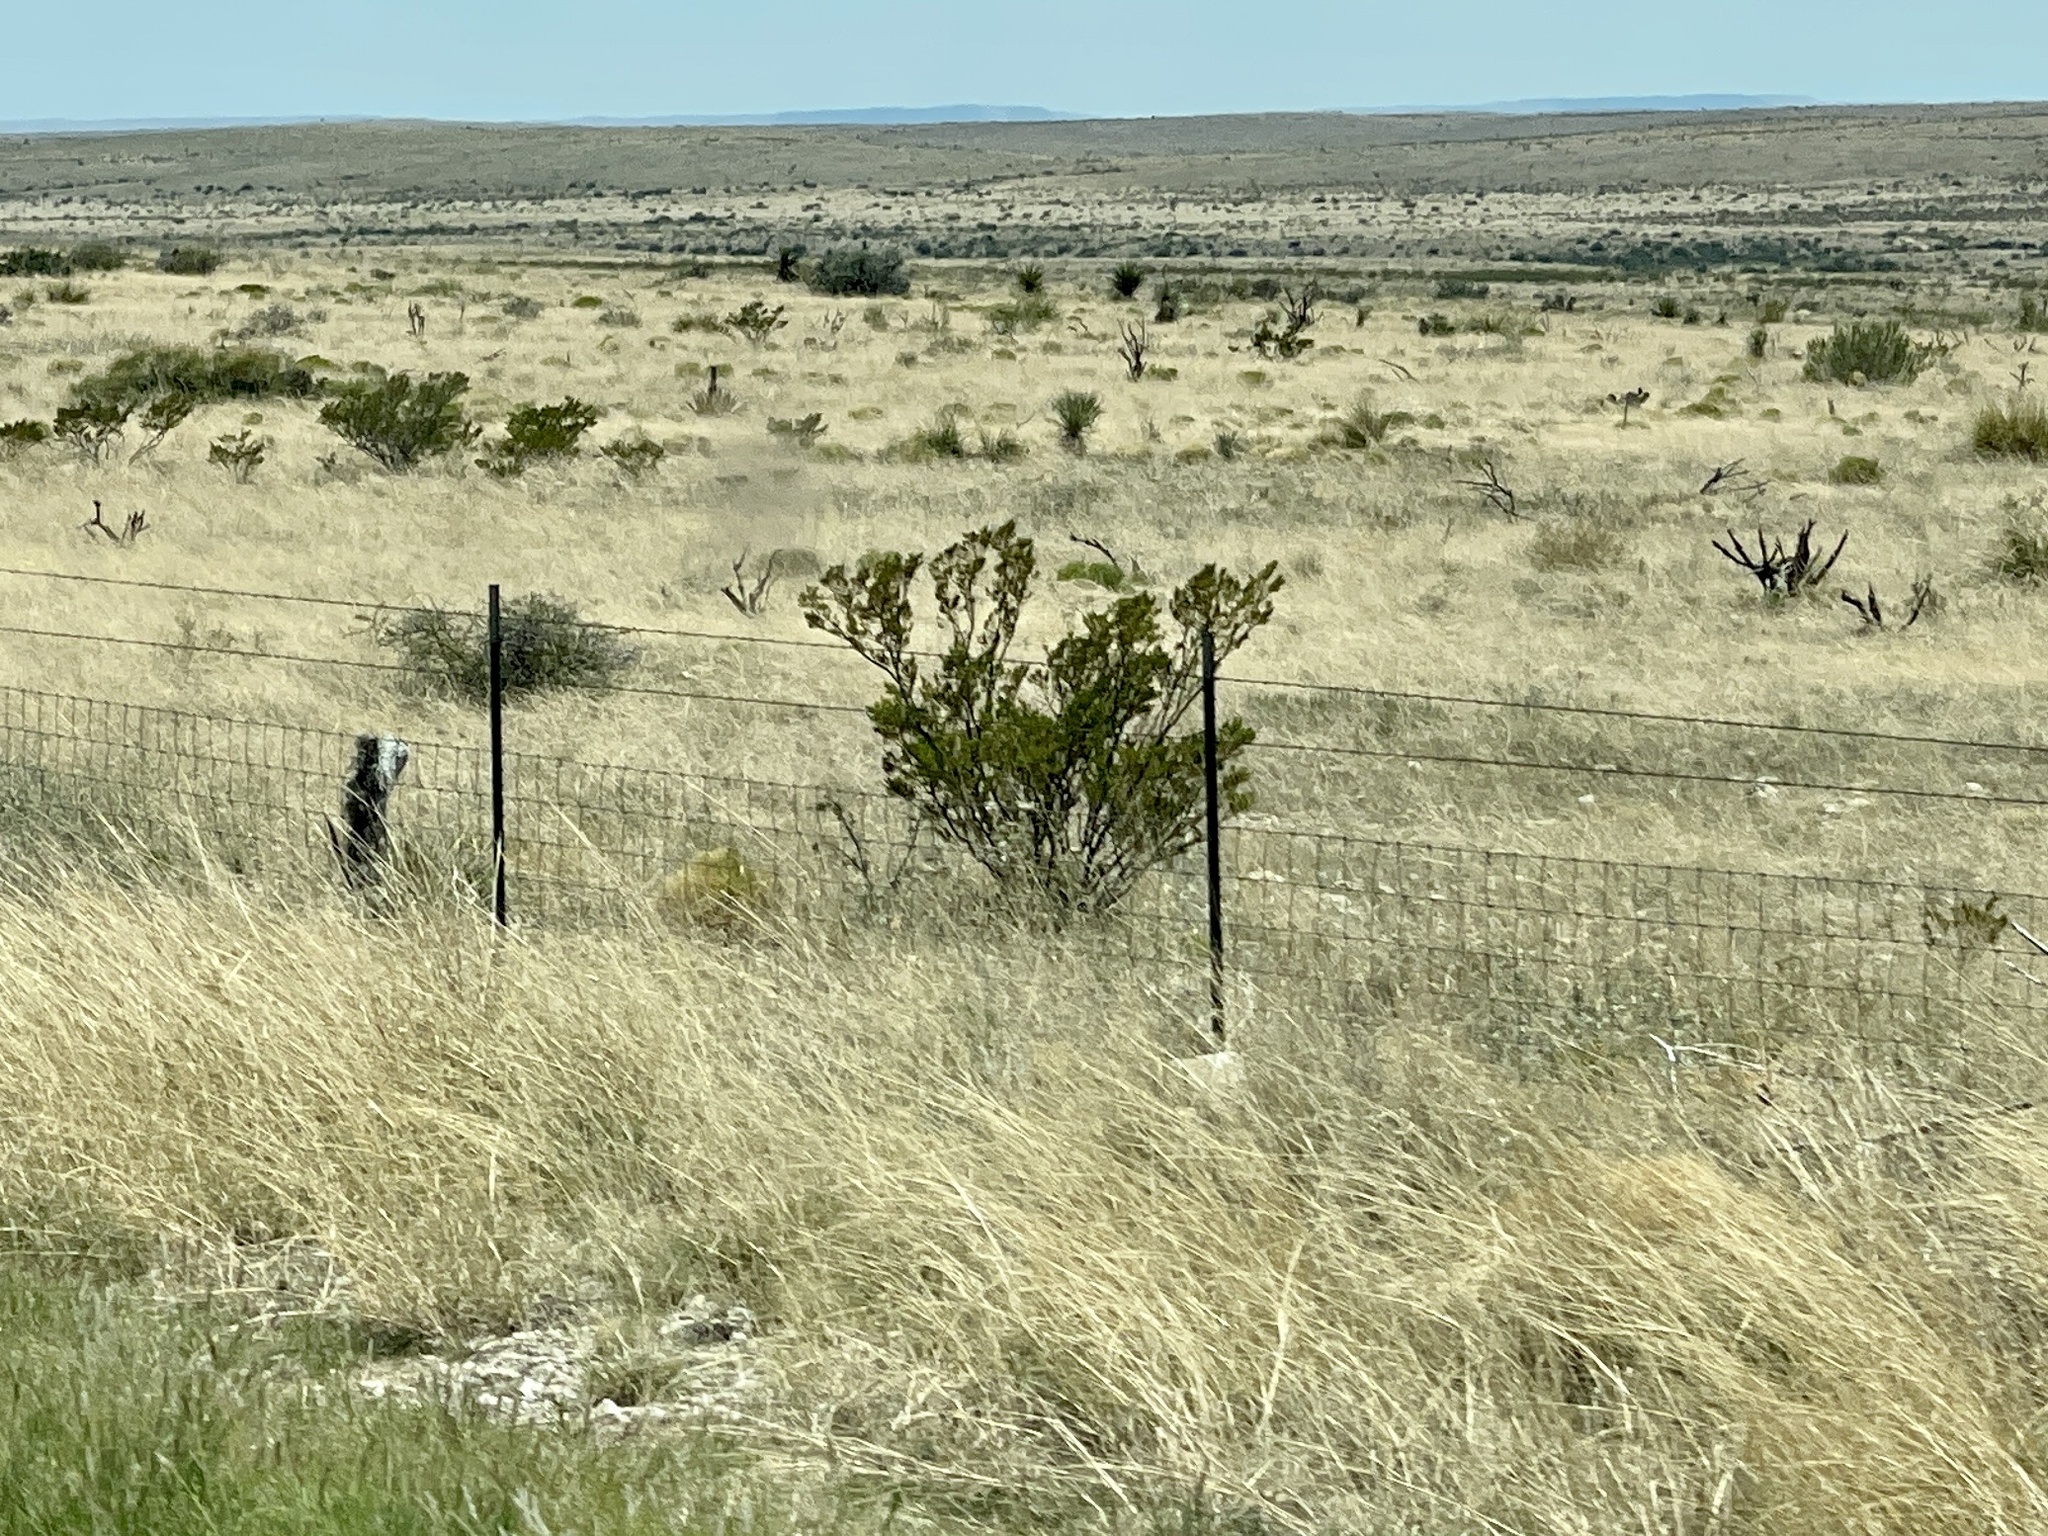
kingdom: Plantae
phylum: Tracheophyta
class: Magnoliopsida
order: Zygophyllales
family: Zygophyllaceae
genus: Larrea
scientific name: Larrea tridentata
